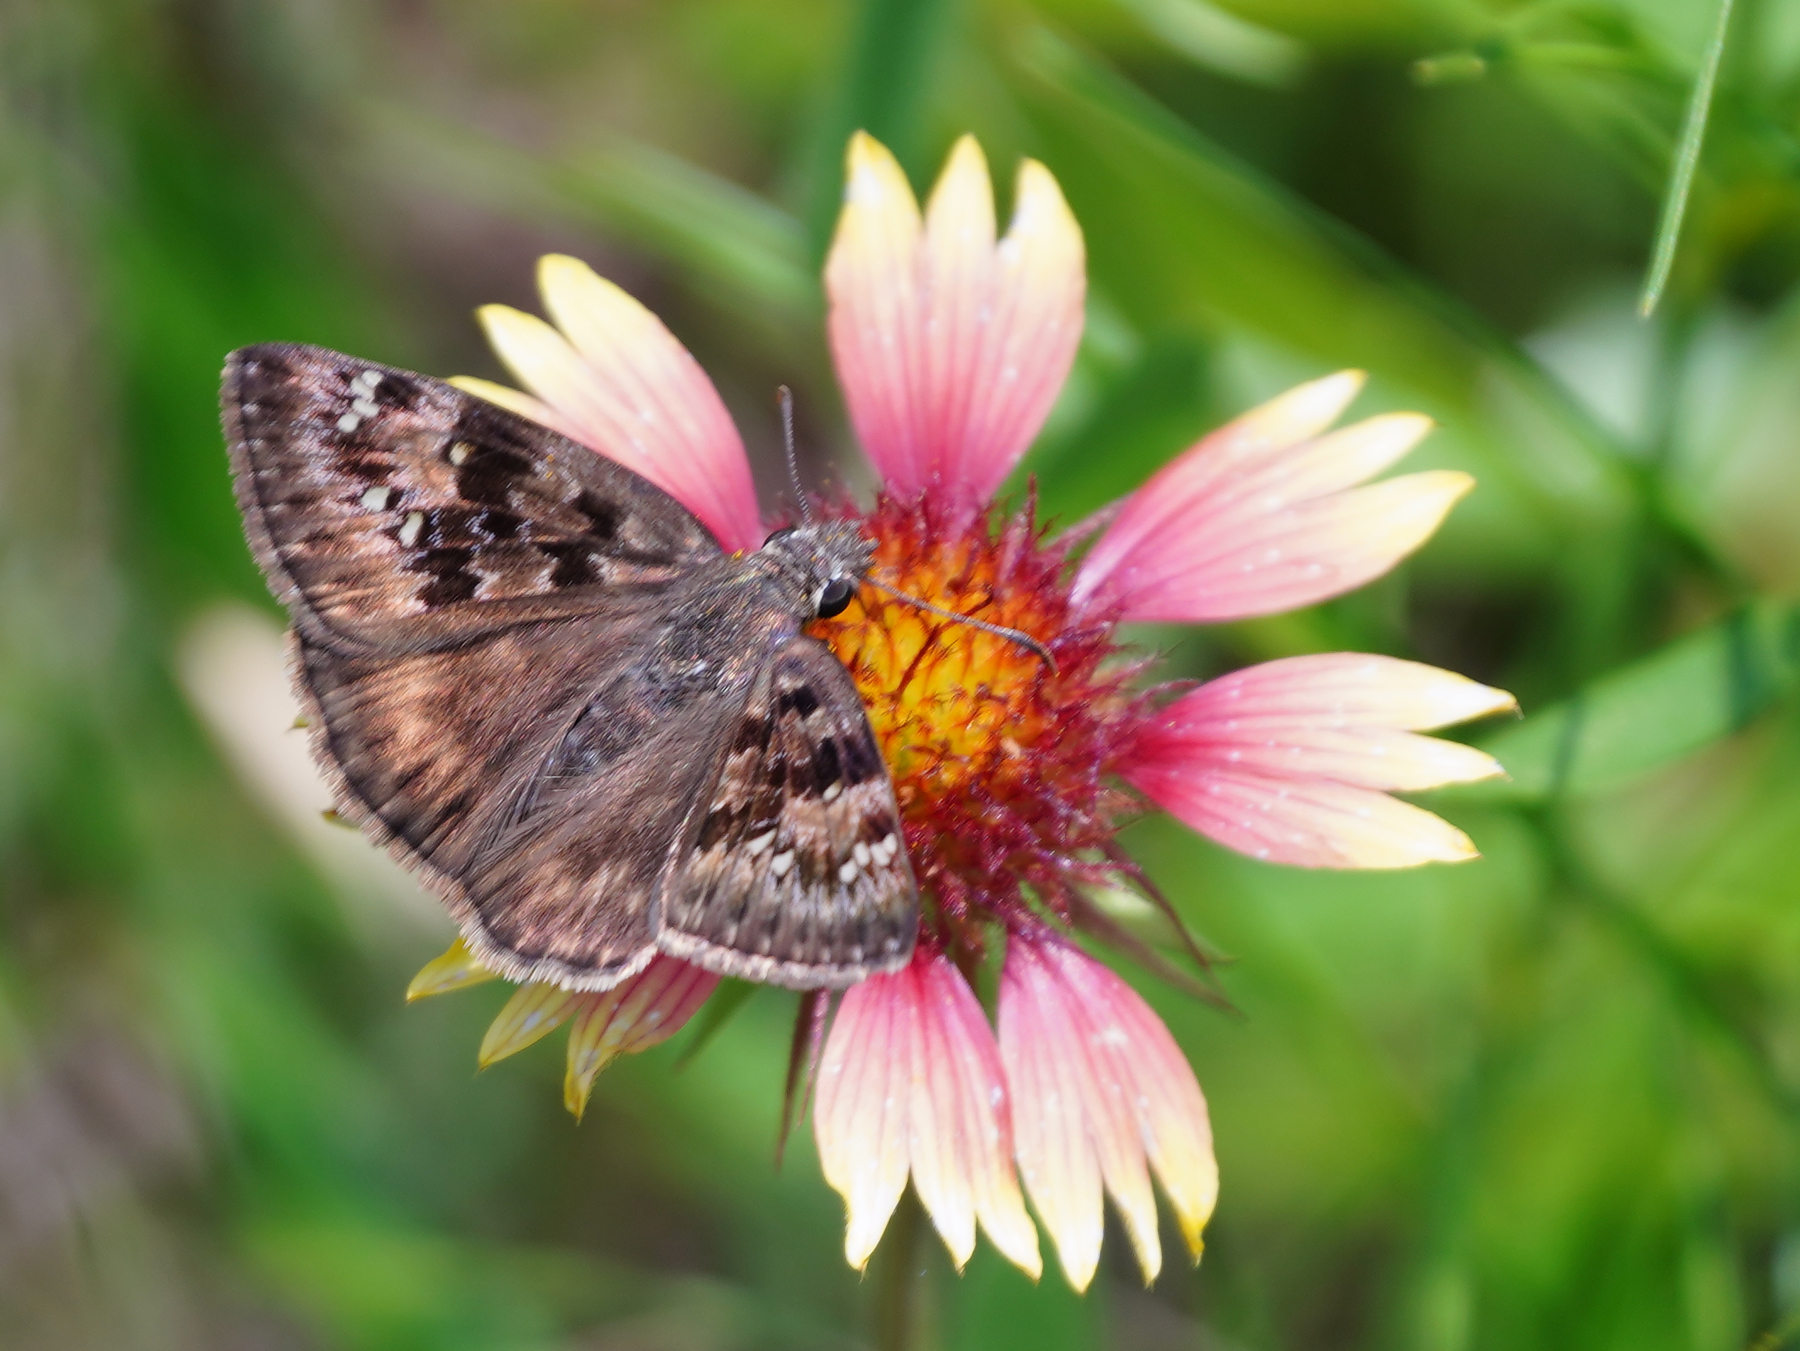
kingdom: Animalia
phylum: Arthropoda
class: Insecta
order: Lepidoptera
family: Hesperiidae
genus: Erynnis
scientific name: Erynnis horatius
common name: Horace's duskywing
